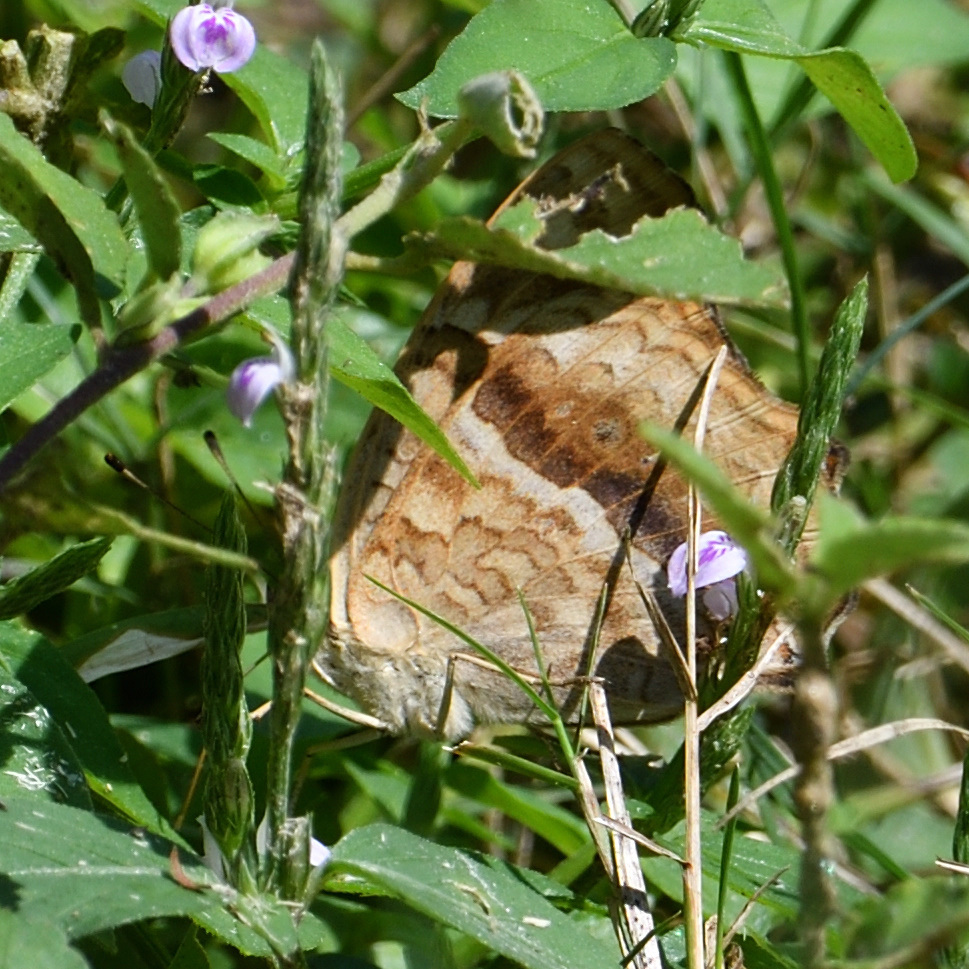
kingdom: Animalia
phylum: Arthropoda
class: Insecta
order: Lepidoptera
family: Nymphalidae
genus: Junonia
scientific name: Junonia lemonias
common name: Lemon pansy
